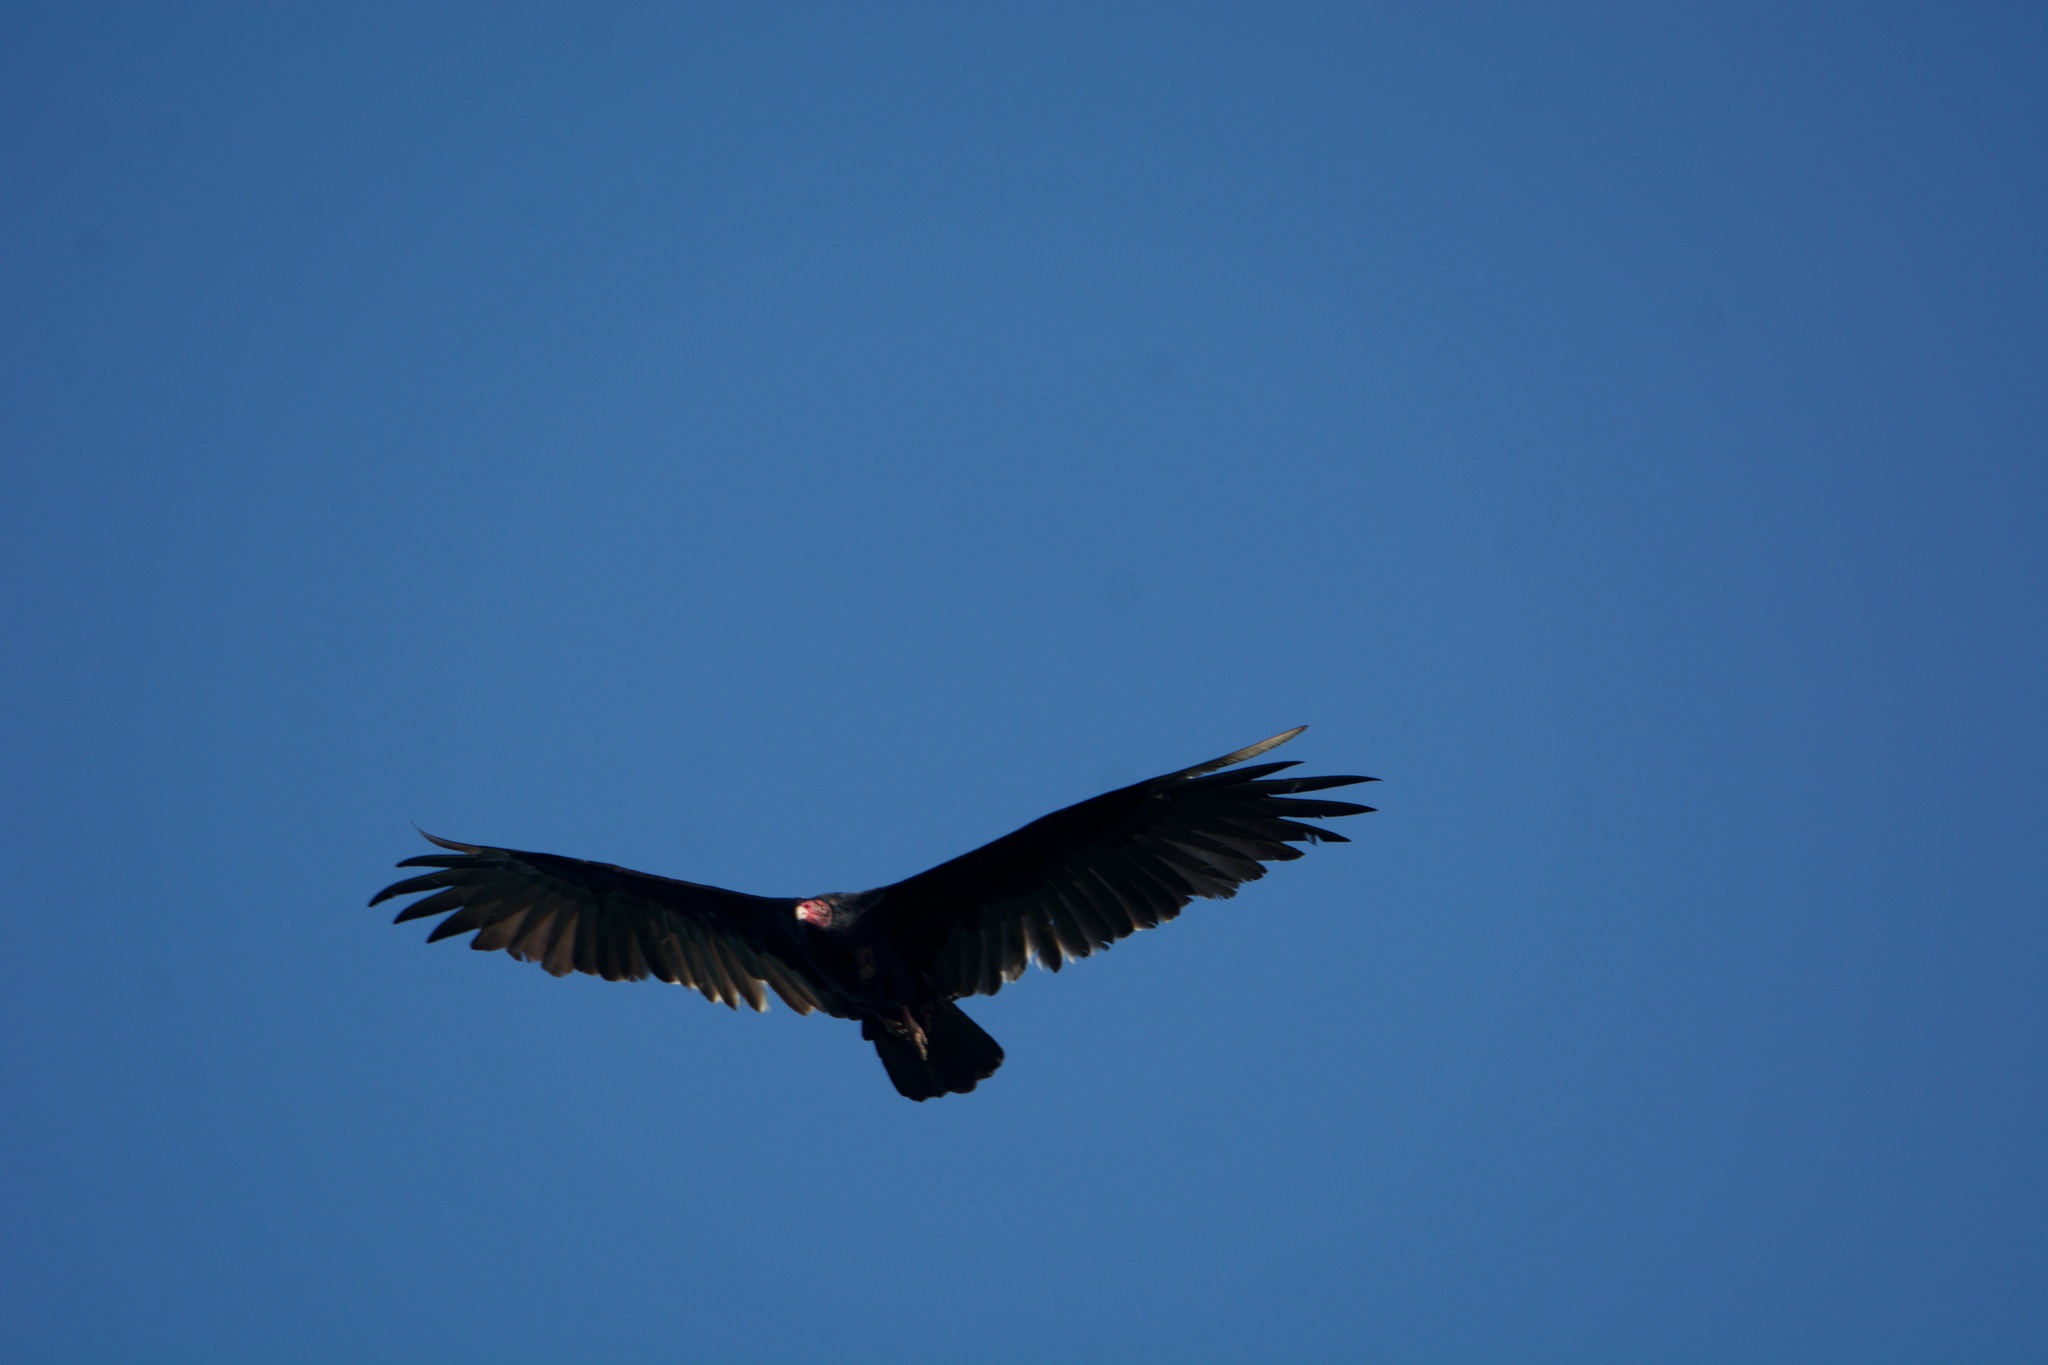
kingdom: Animalia
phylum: Chordata
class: Aves
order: Accipitriformes
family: Cathartidae
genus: Cathartes
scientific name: Cathartes aura
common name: Turkey vulture
